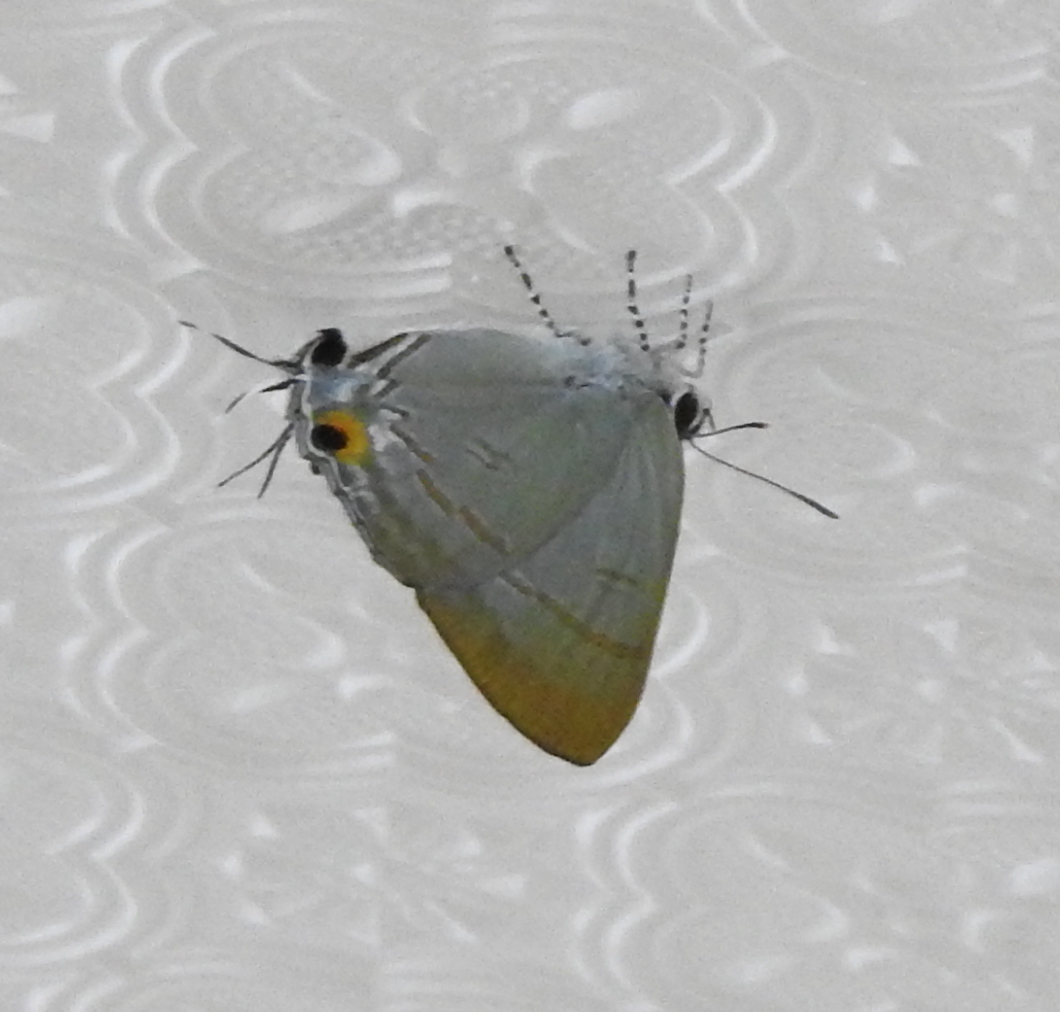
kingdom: Animalia
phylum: Arthropoda
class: Insecta
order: Lepidoptera
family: Lycaenidae
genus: Hypolycaena
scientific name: Hypolycaena erylus
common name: Common tit
